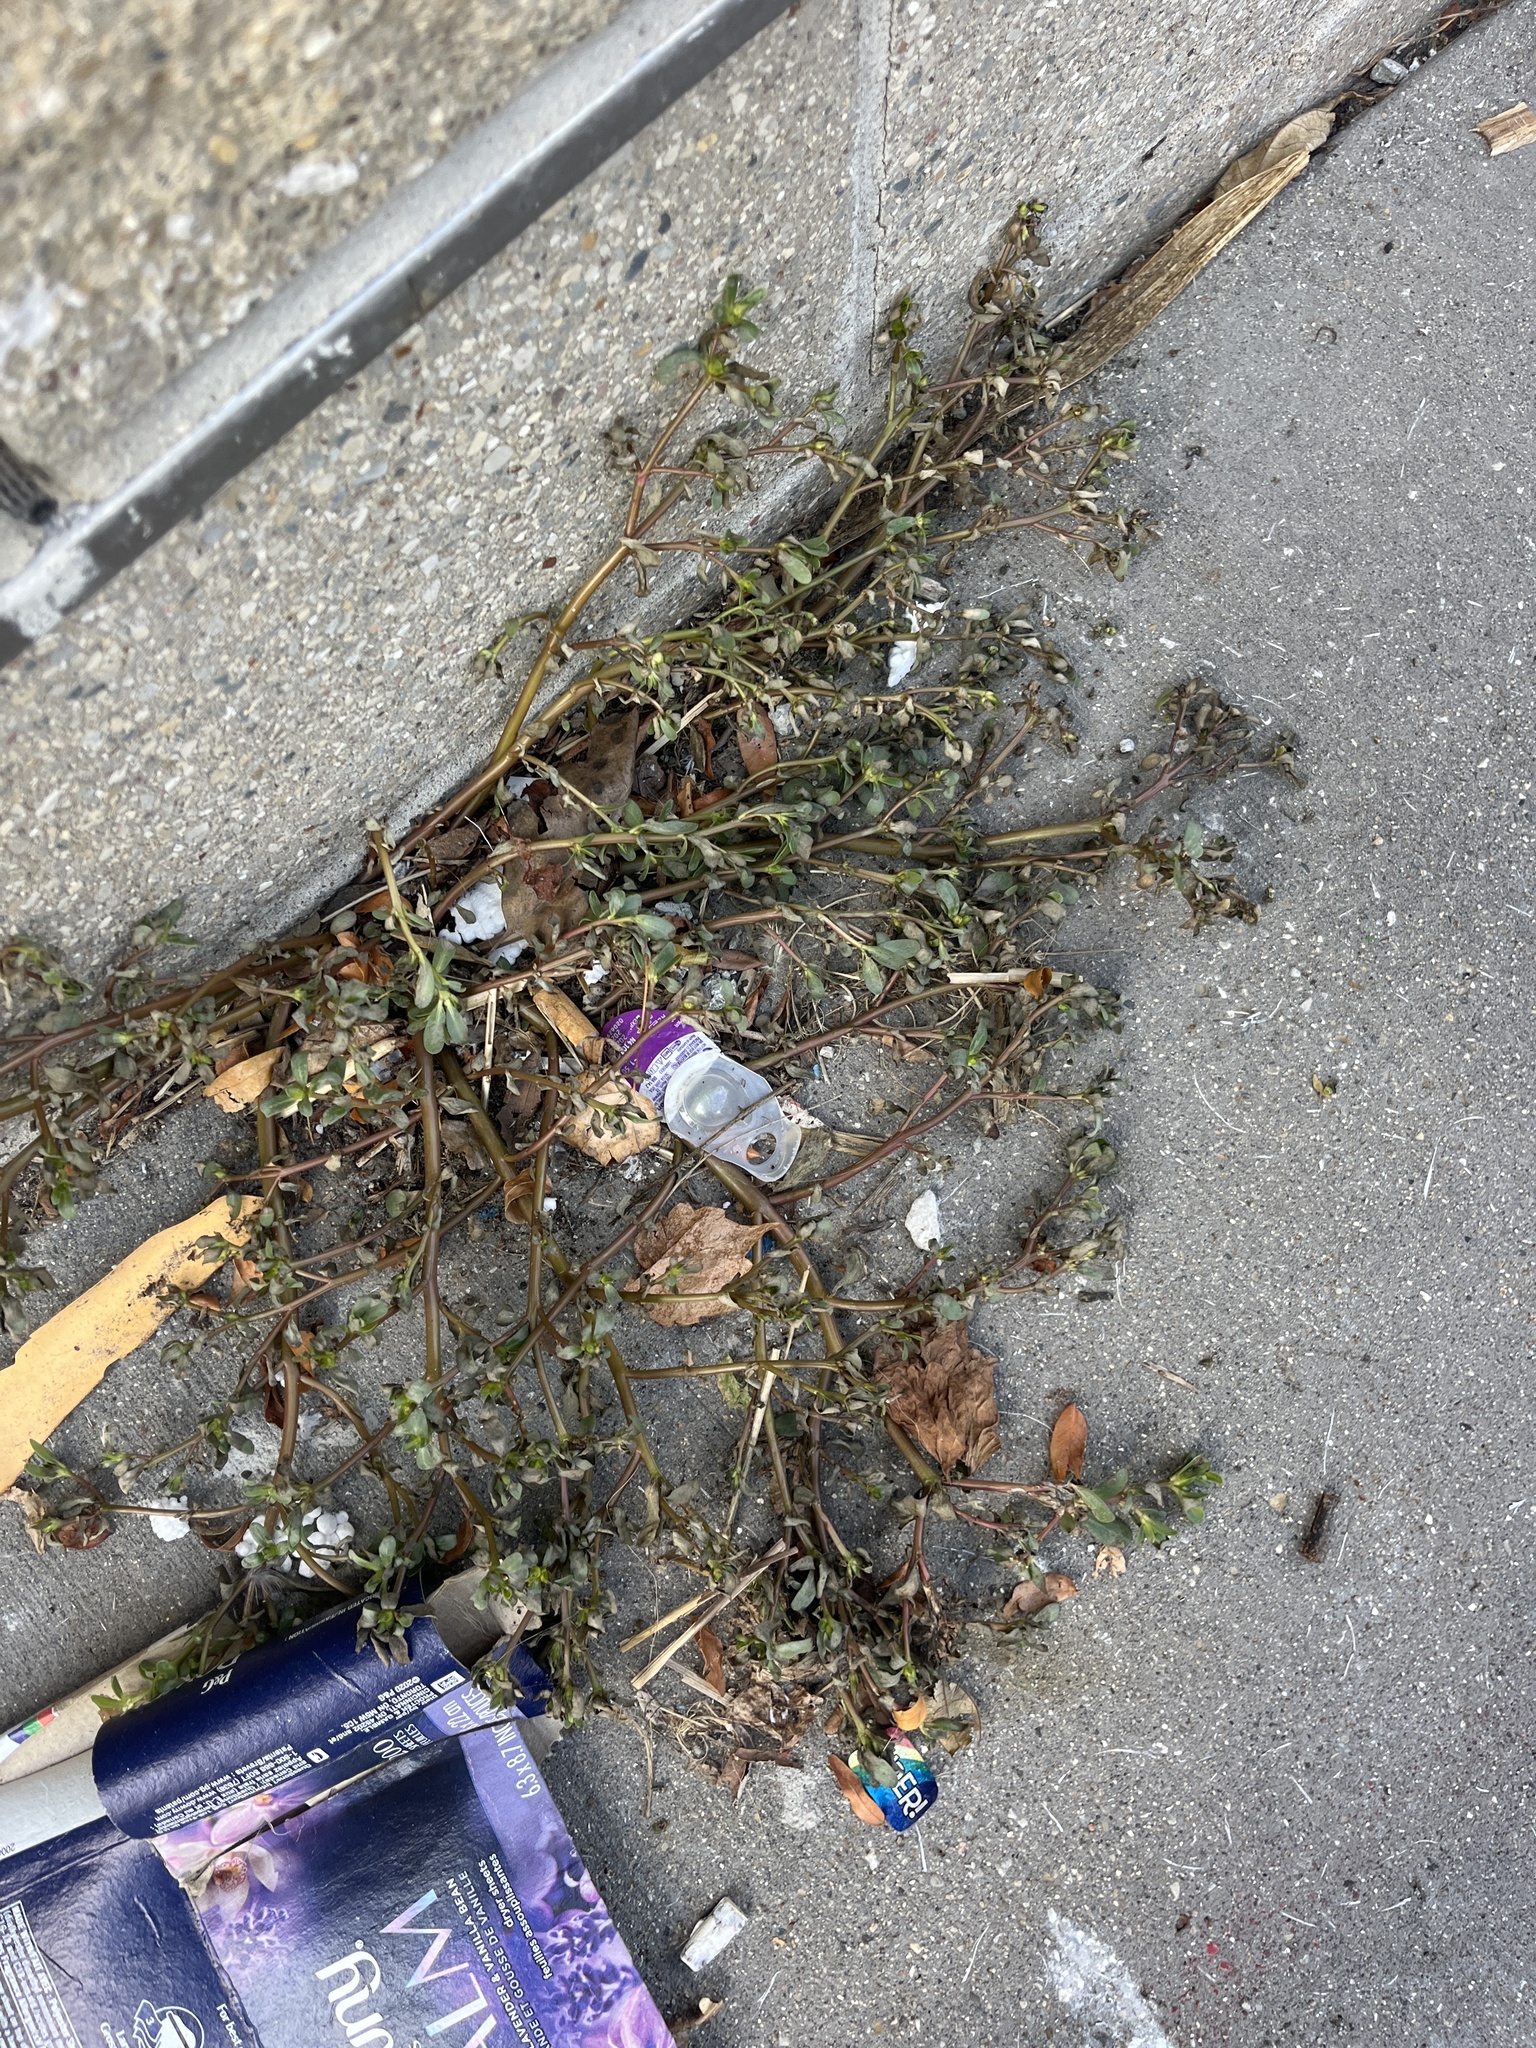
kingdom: Plantae
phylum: Tracheophyta
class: Magnoliopsida
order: Caryophyllales
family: Portulacaceae
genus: Portulaca
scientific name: Portulaca oleracea
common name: Common purslane
